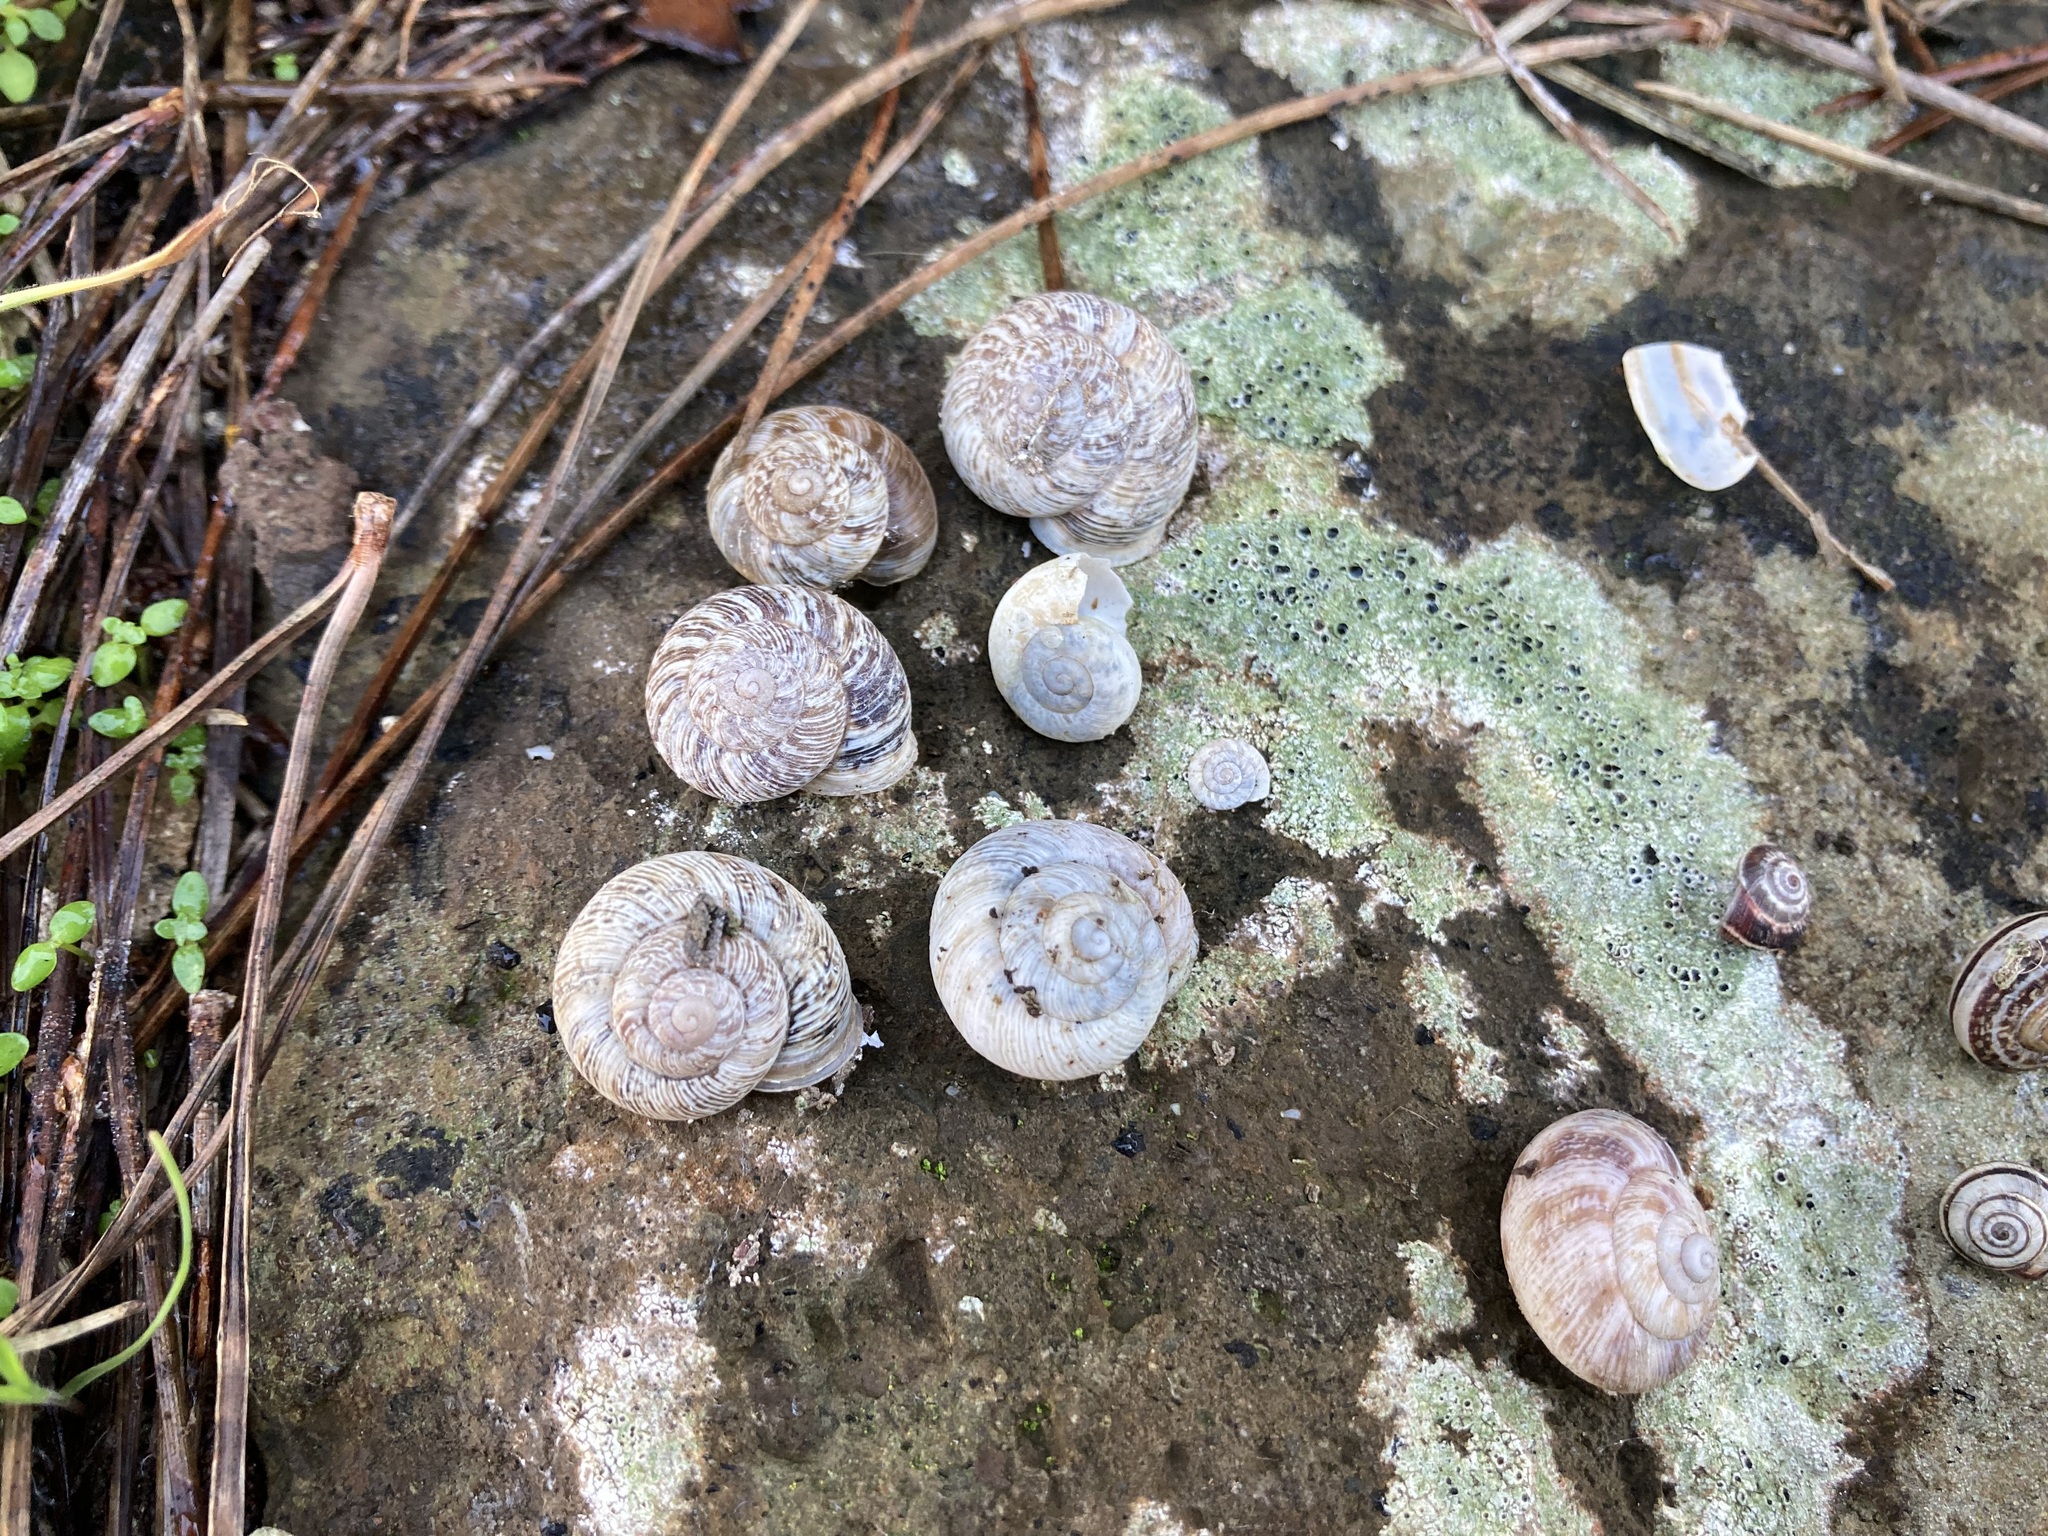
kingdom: Animalia
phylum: Mollusca
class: Gastropoda
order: Stylommatophora
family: Geomitridae
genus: Cernuella
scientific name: Cernuella virgata
